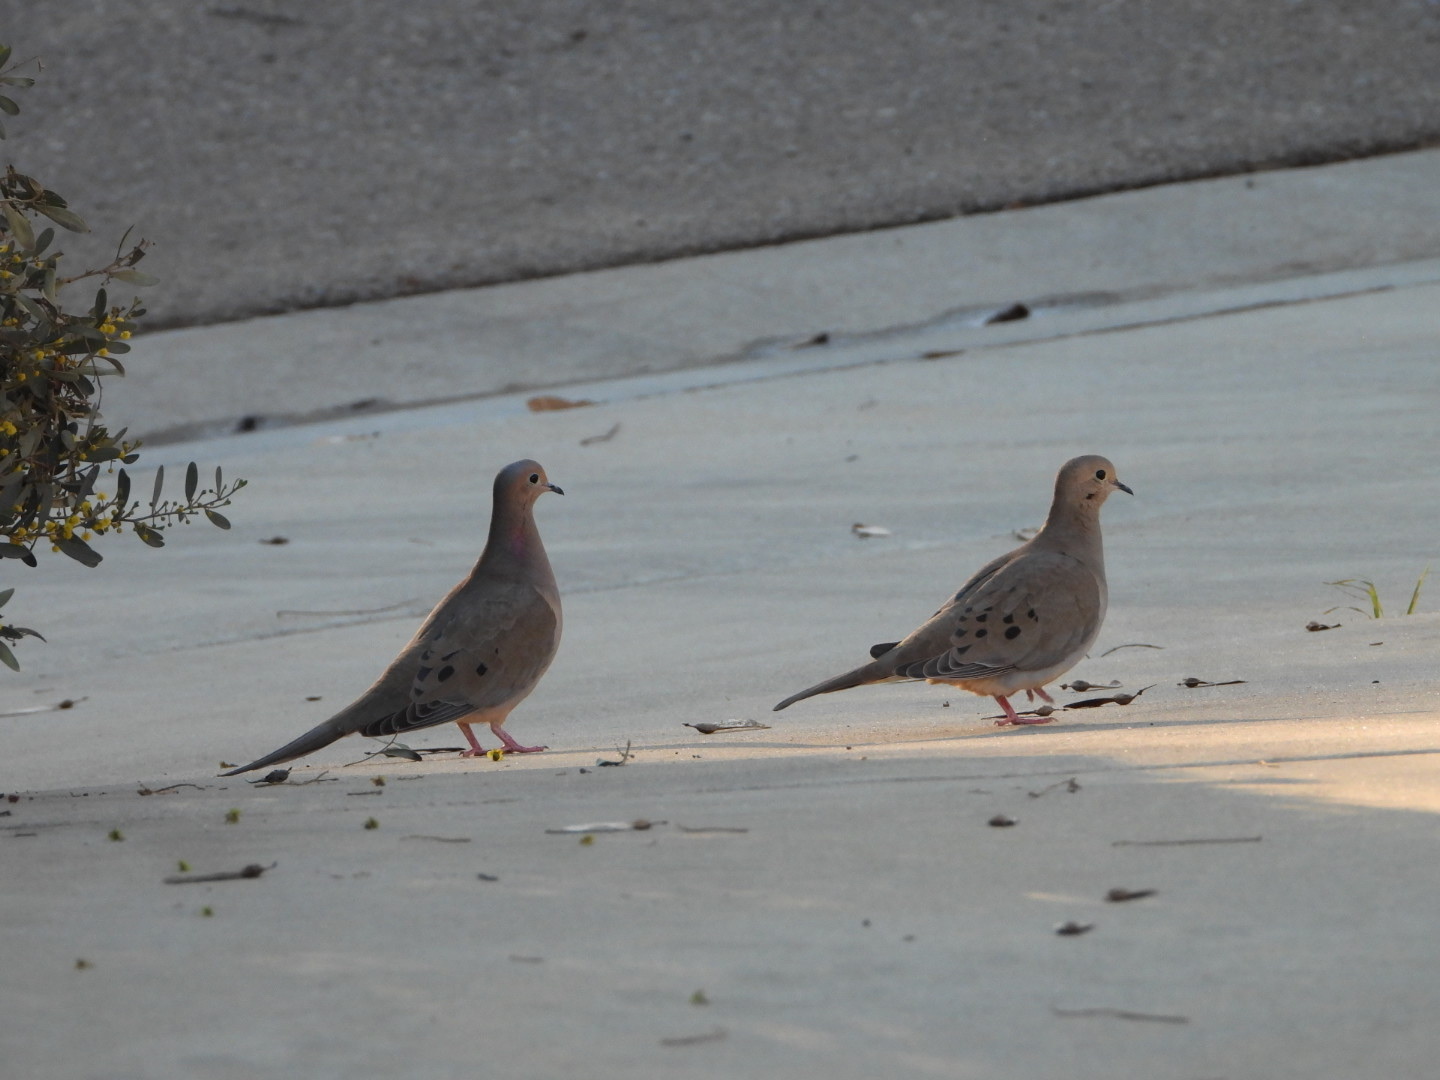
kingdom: Animalia
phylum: Chordata
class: Aves
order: Columbiformes
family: Columbidae
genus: Zenaida
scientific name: Zenaida macroura
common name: Mourning dove
